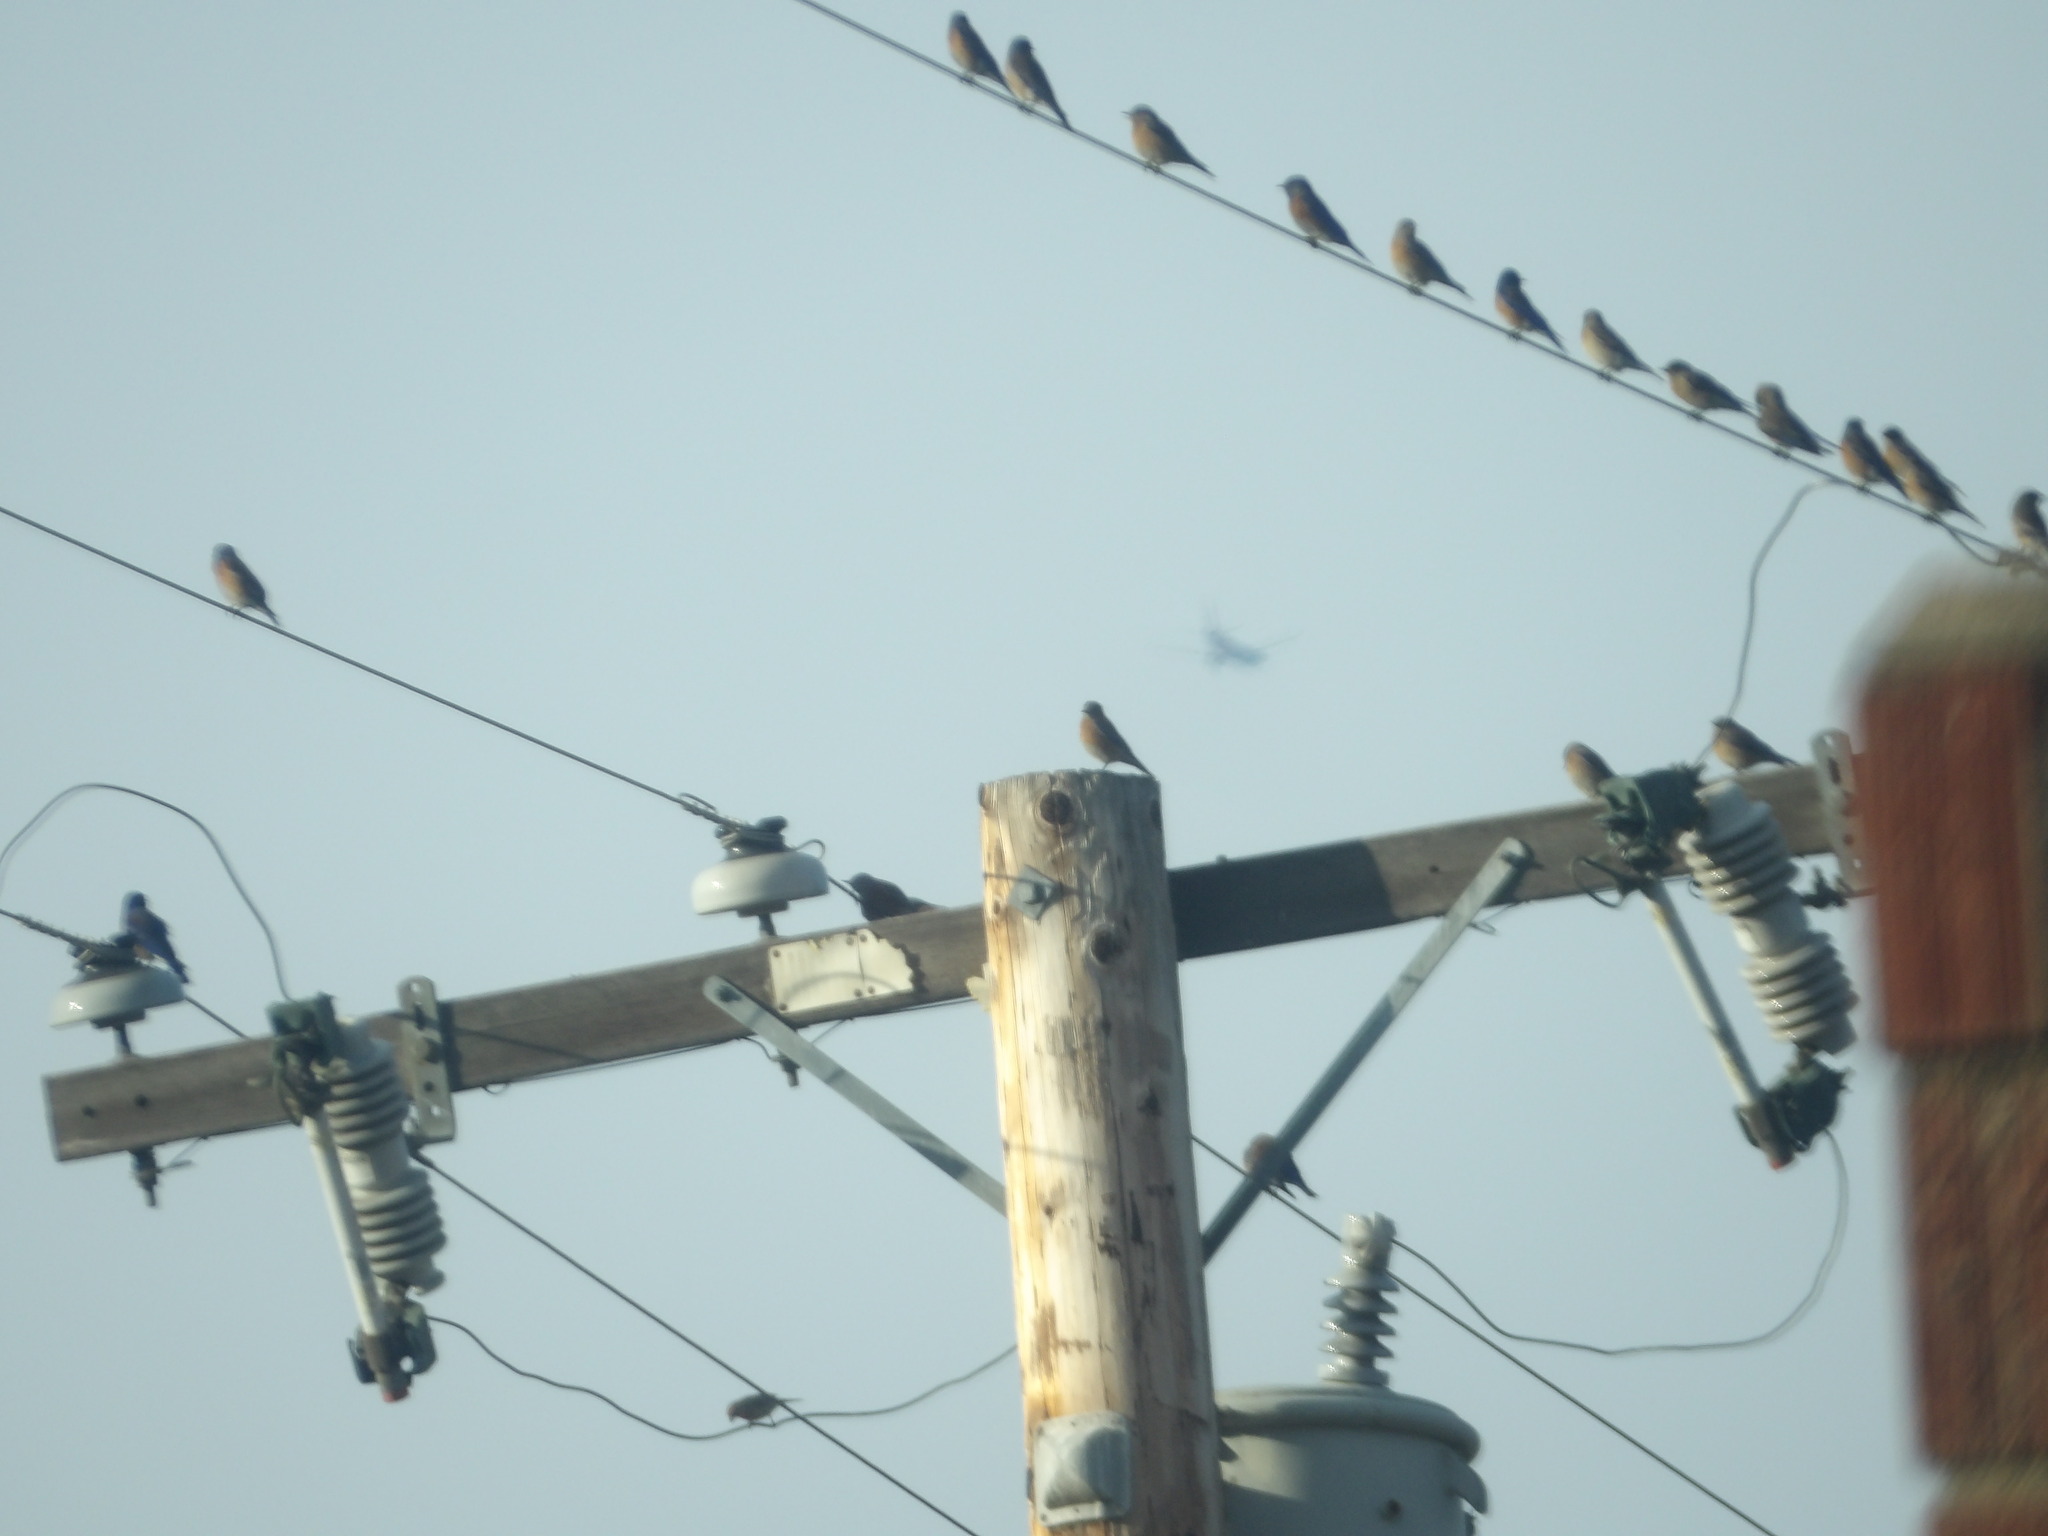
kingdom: Animalia
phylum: Chordata
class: Aves
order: Passeriformes
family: Turdidae
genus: Sialia
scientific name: Sialia mexicana
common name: Western bluebird
